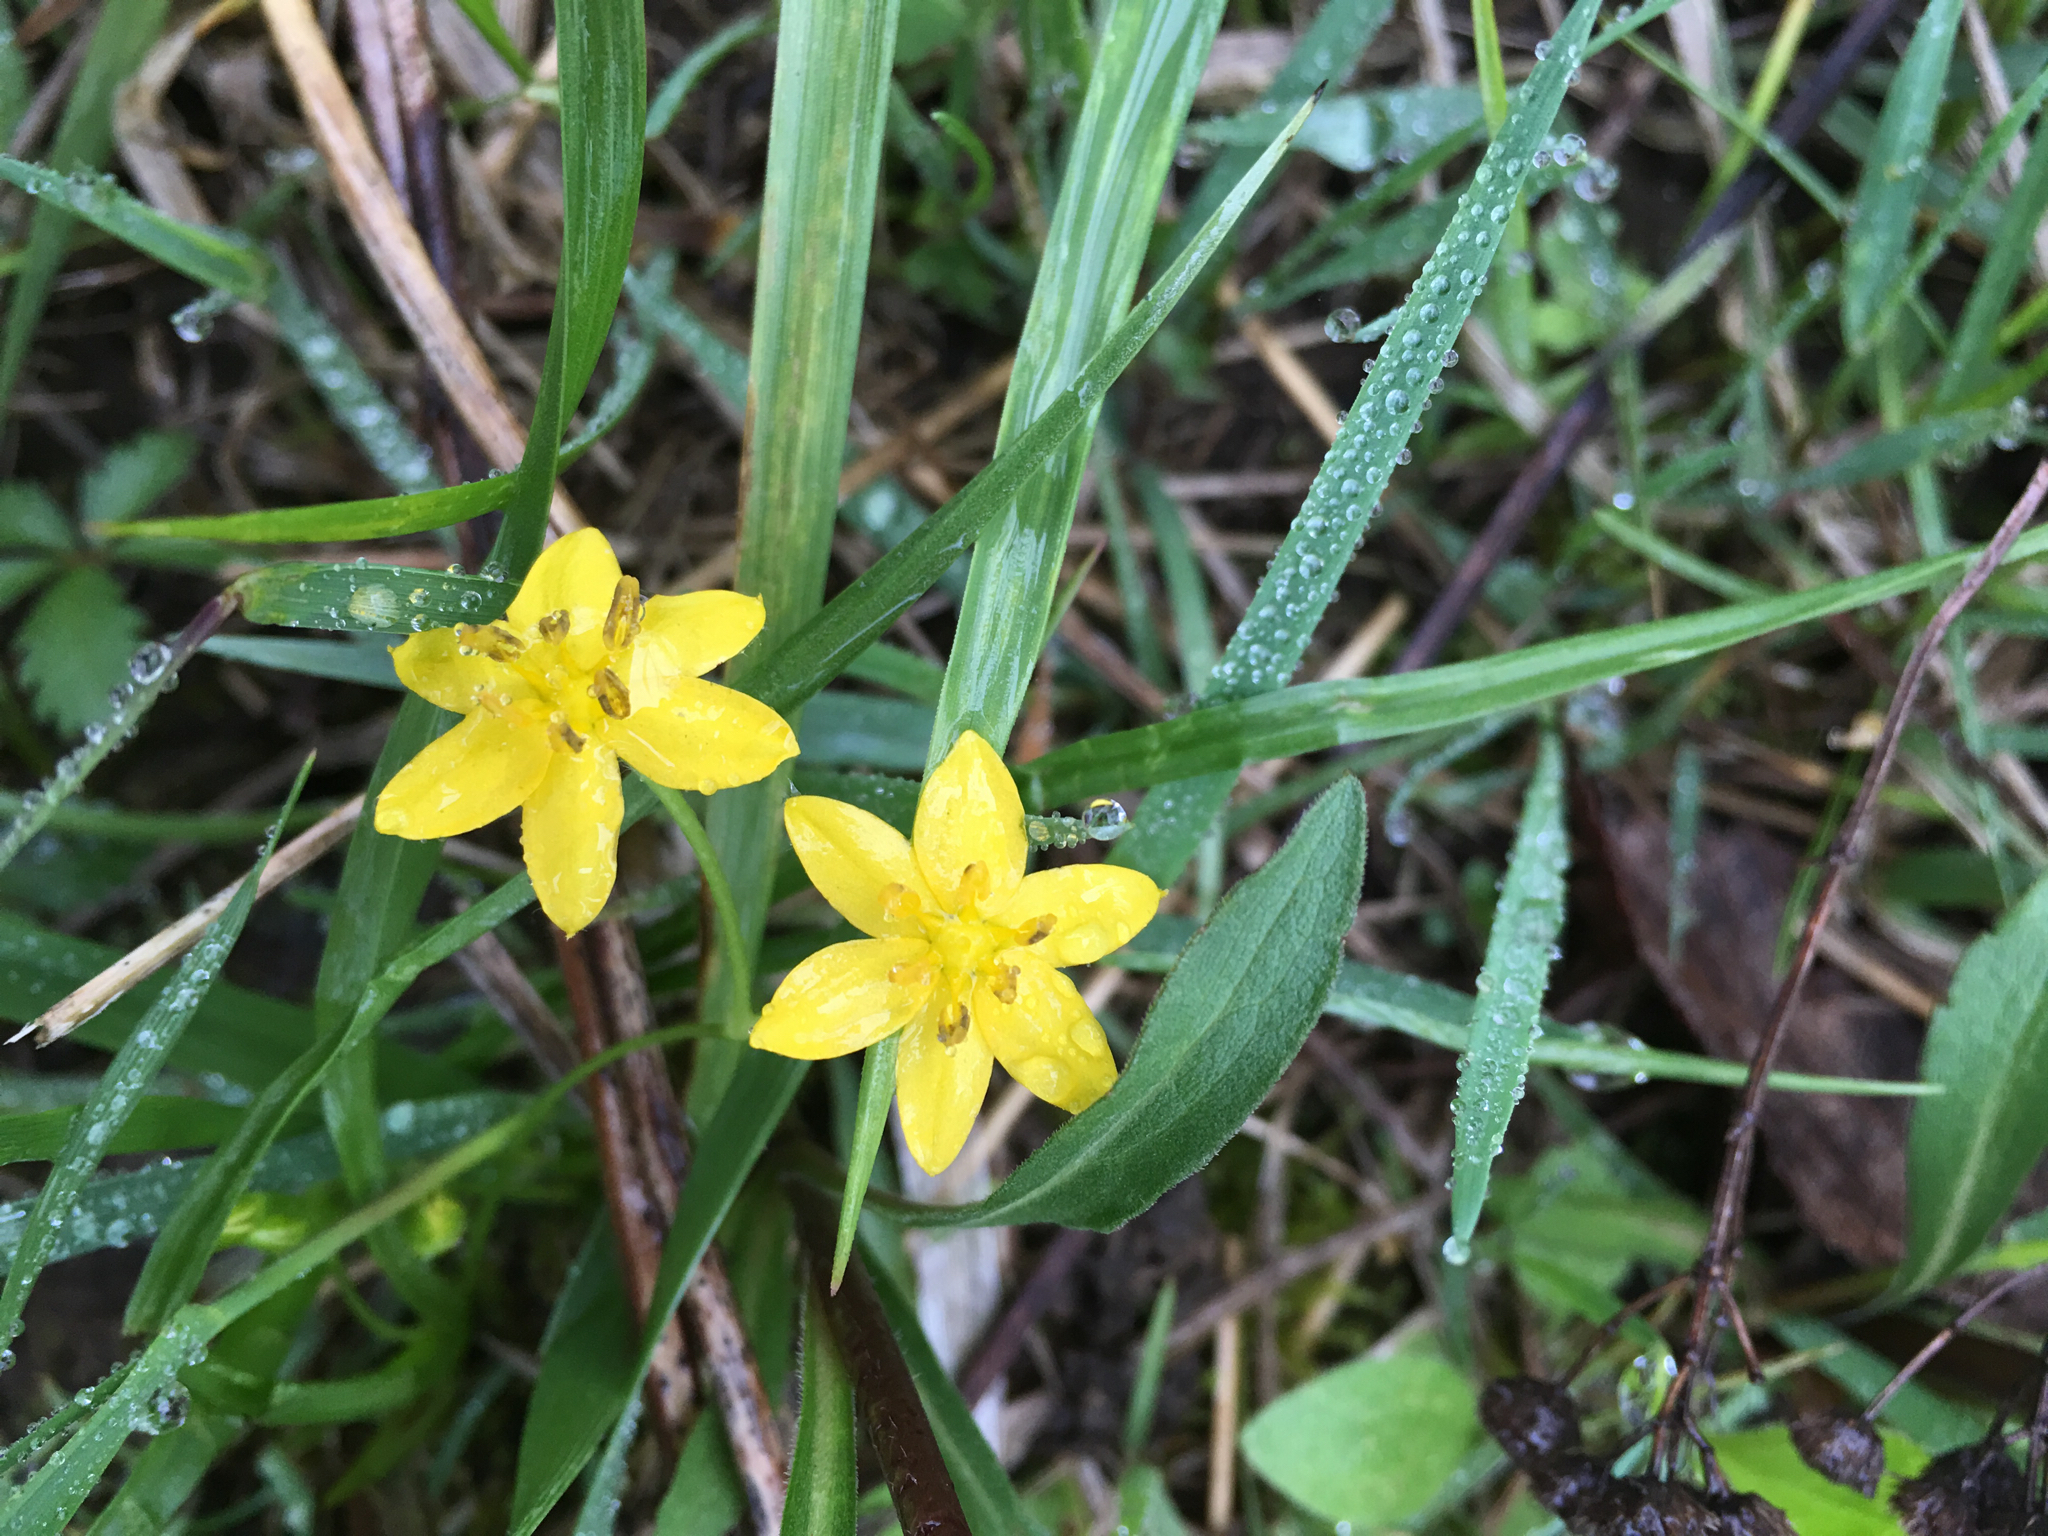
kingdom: Plantae
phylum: Tracheophyta
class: Liliopsida
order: Asparagales
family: Hypoxidaceae
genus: Hypoxis
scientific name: Hypoxis hirsuta
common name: Common goldstar
